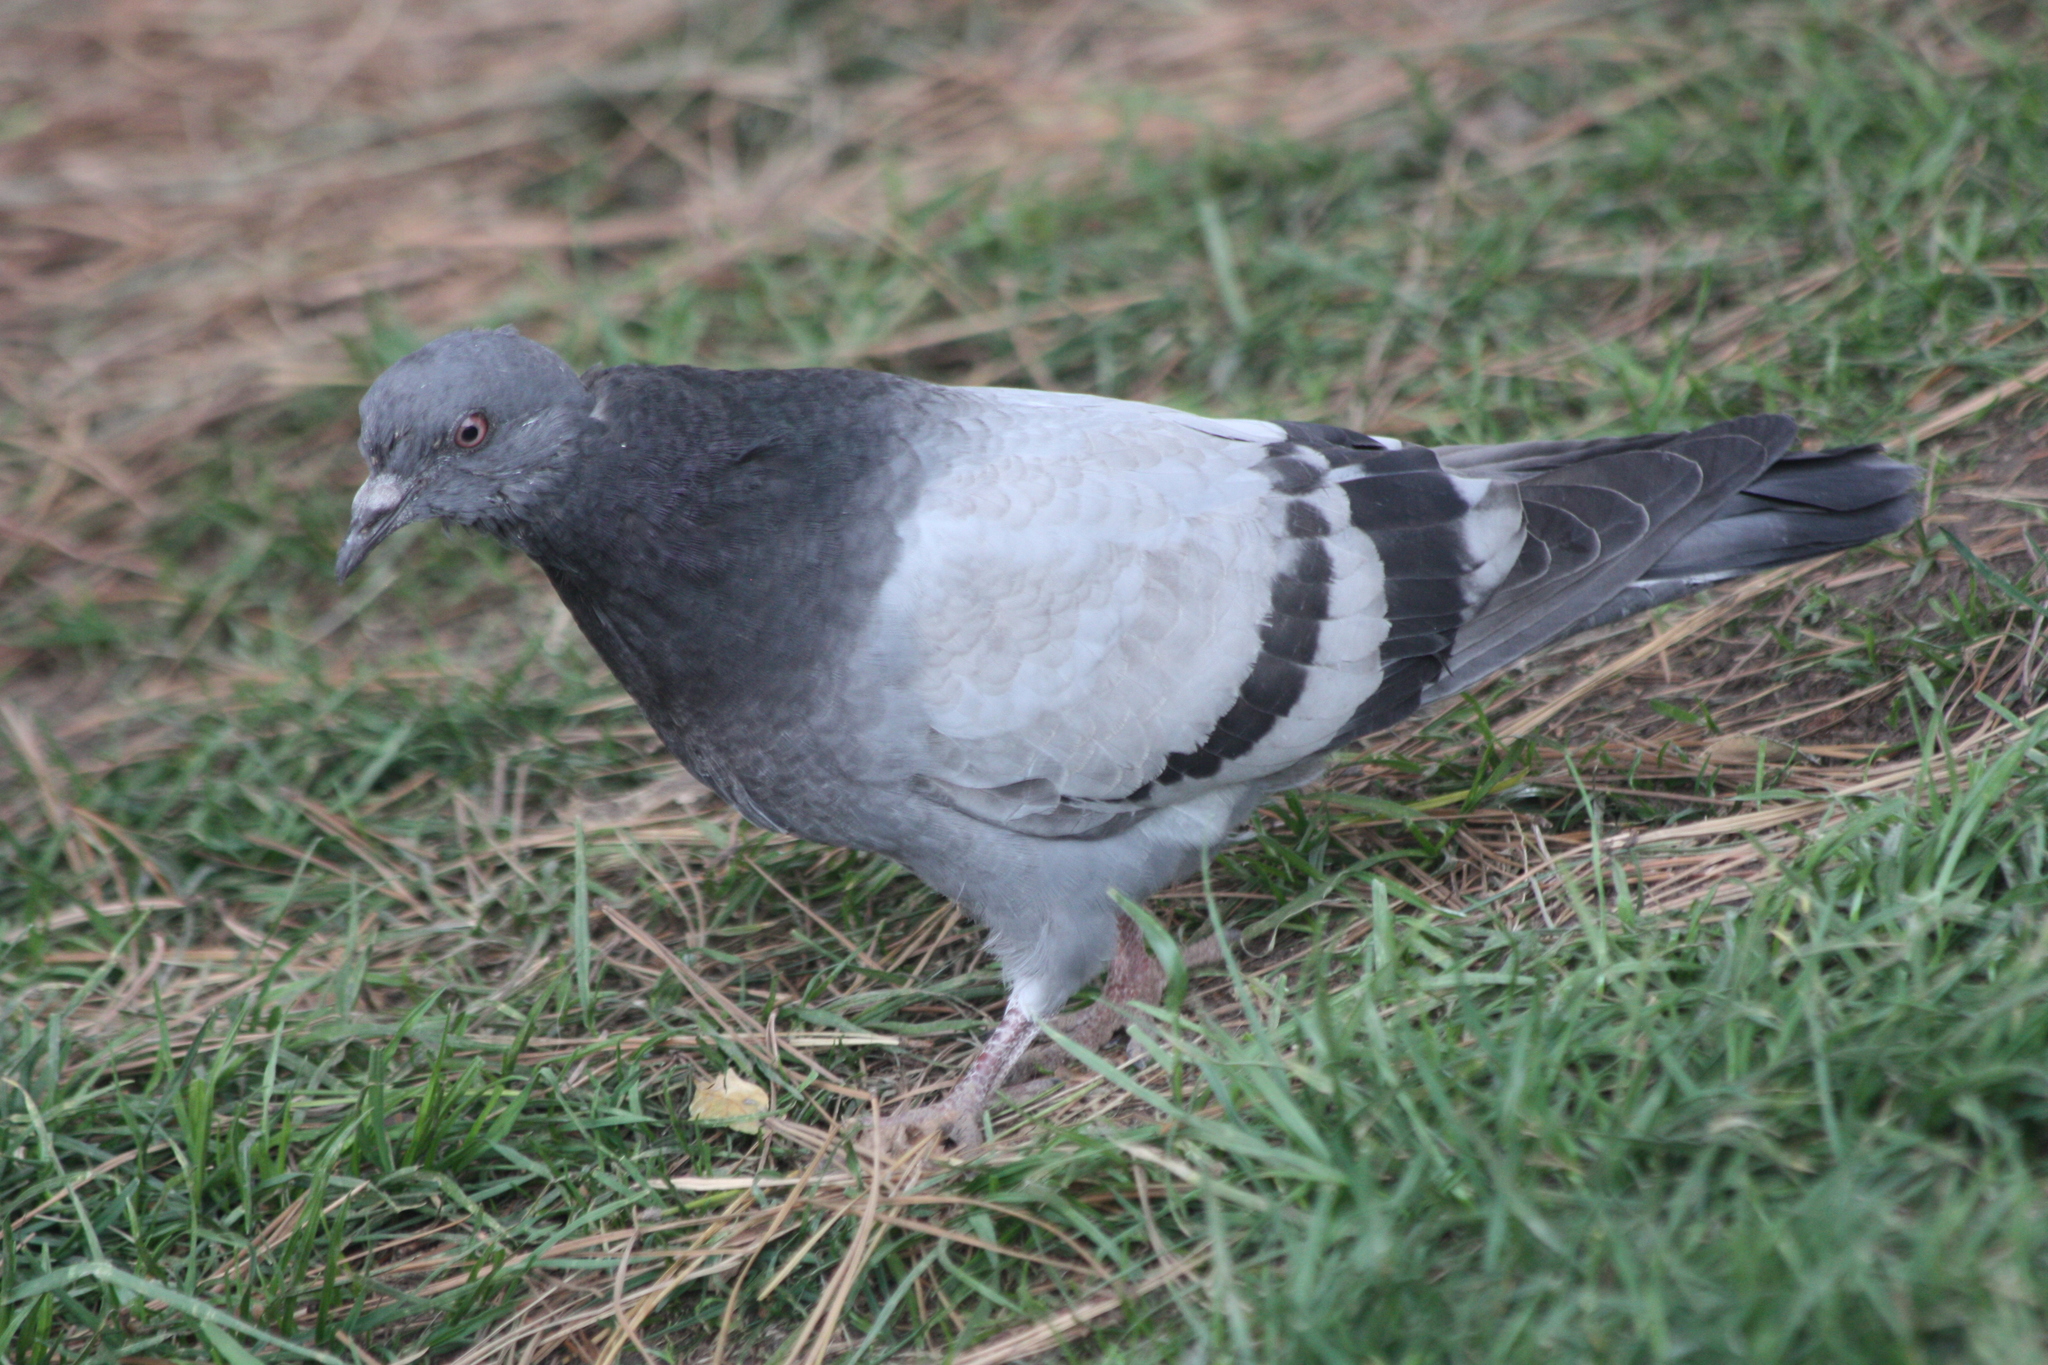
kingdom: Animalia
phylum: Chordata
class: Aves
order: Columbiformes
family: Columbidae
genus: Columba
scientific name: Columba livia
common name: Rock pigeon
